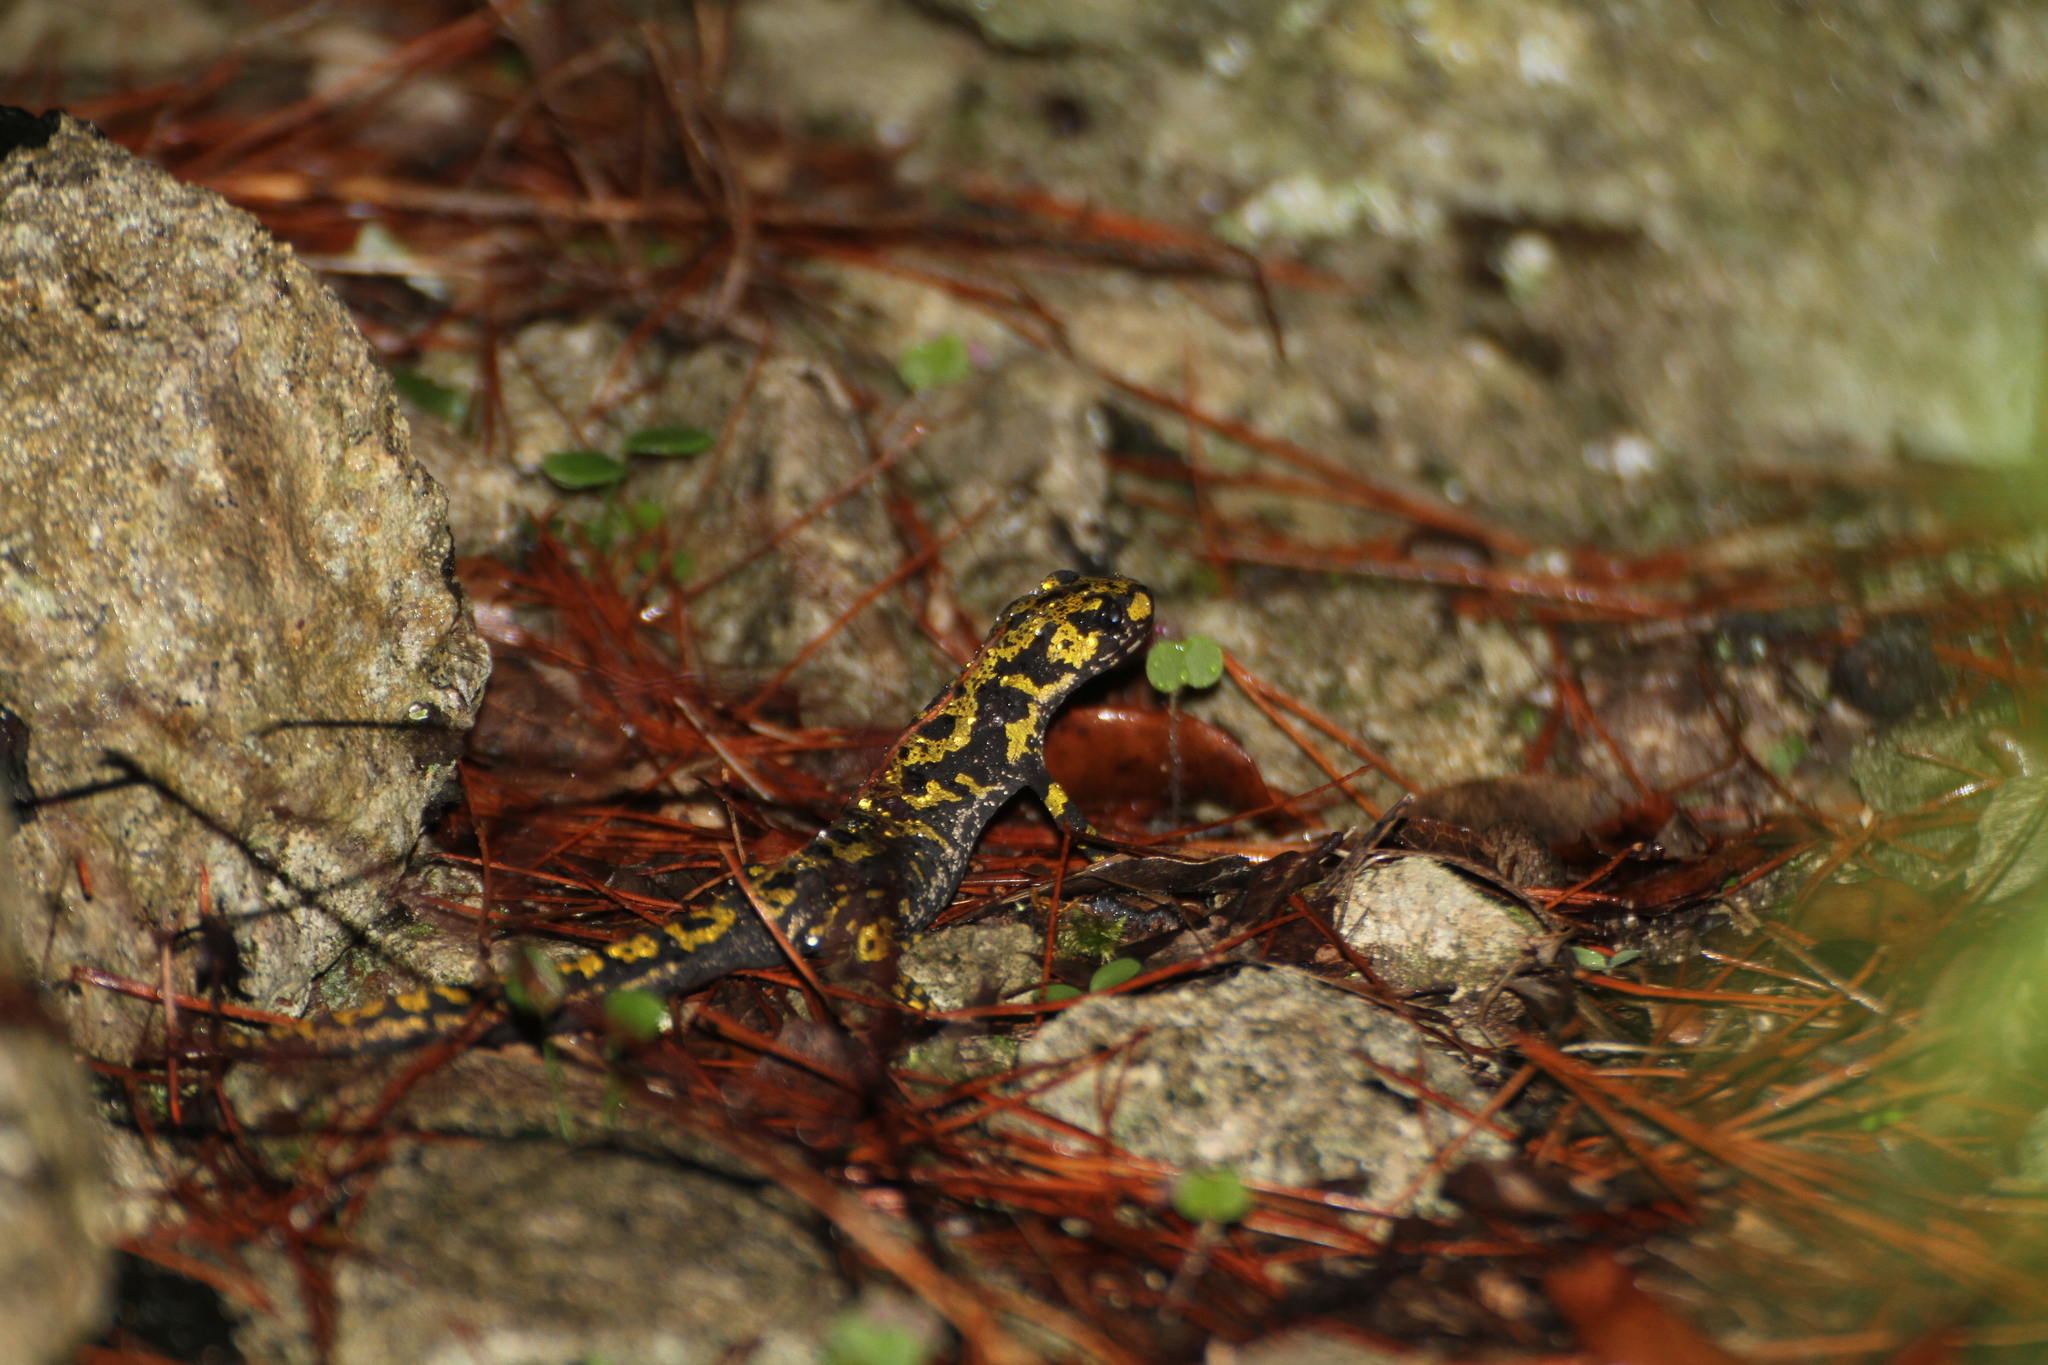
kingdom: Animalia
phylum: Chordata
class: Amphibia
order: Caudata
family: Salamandridae
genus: Triturus
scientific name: Triturus marmoratus
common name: Marbled newt
